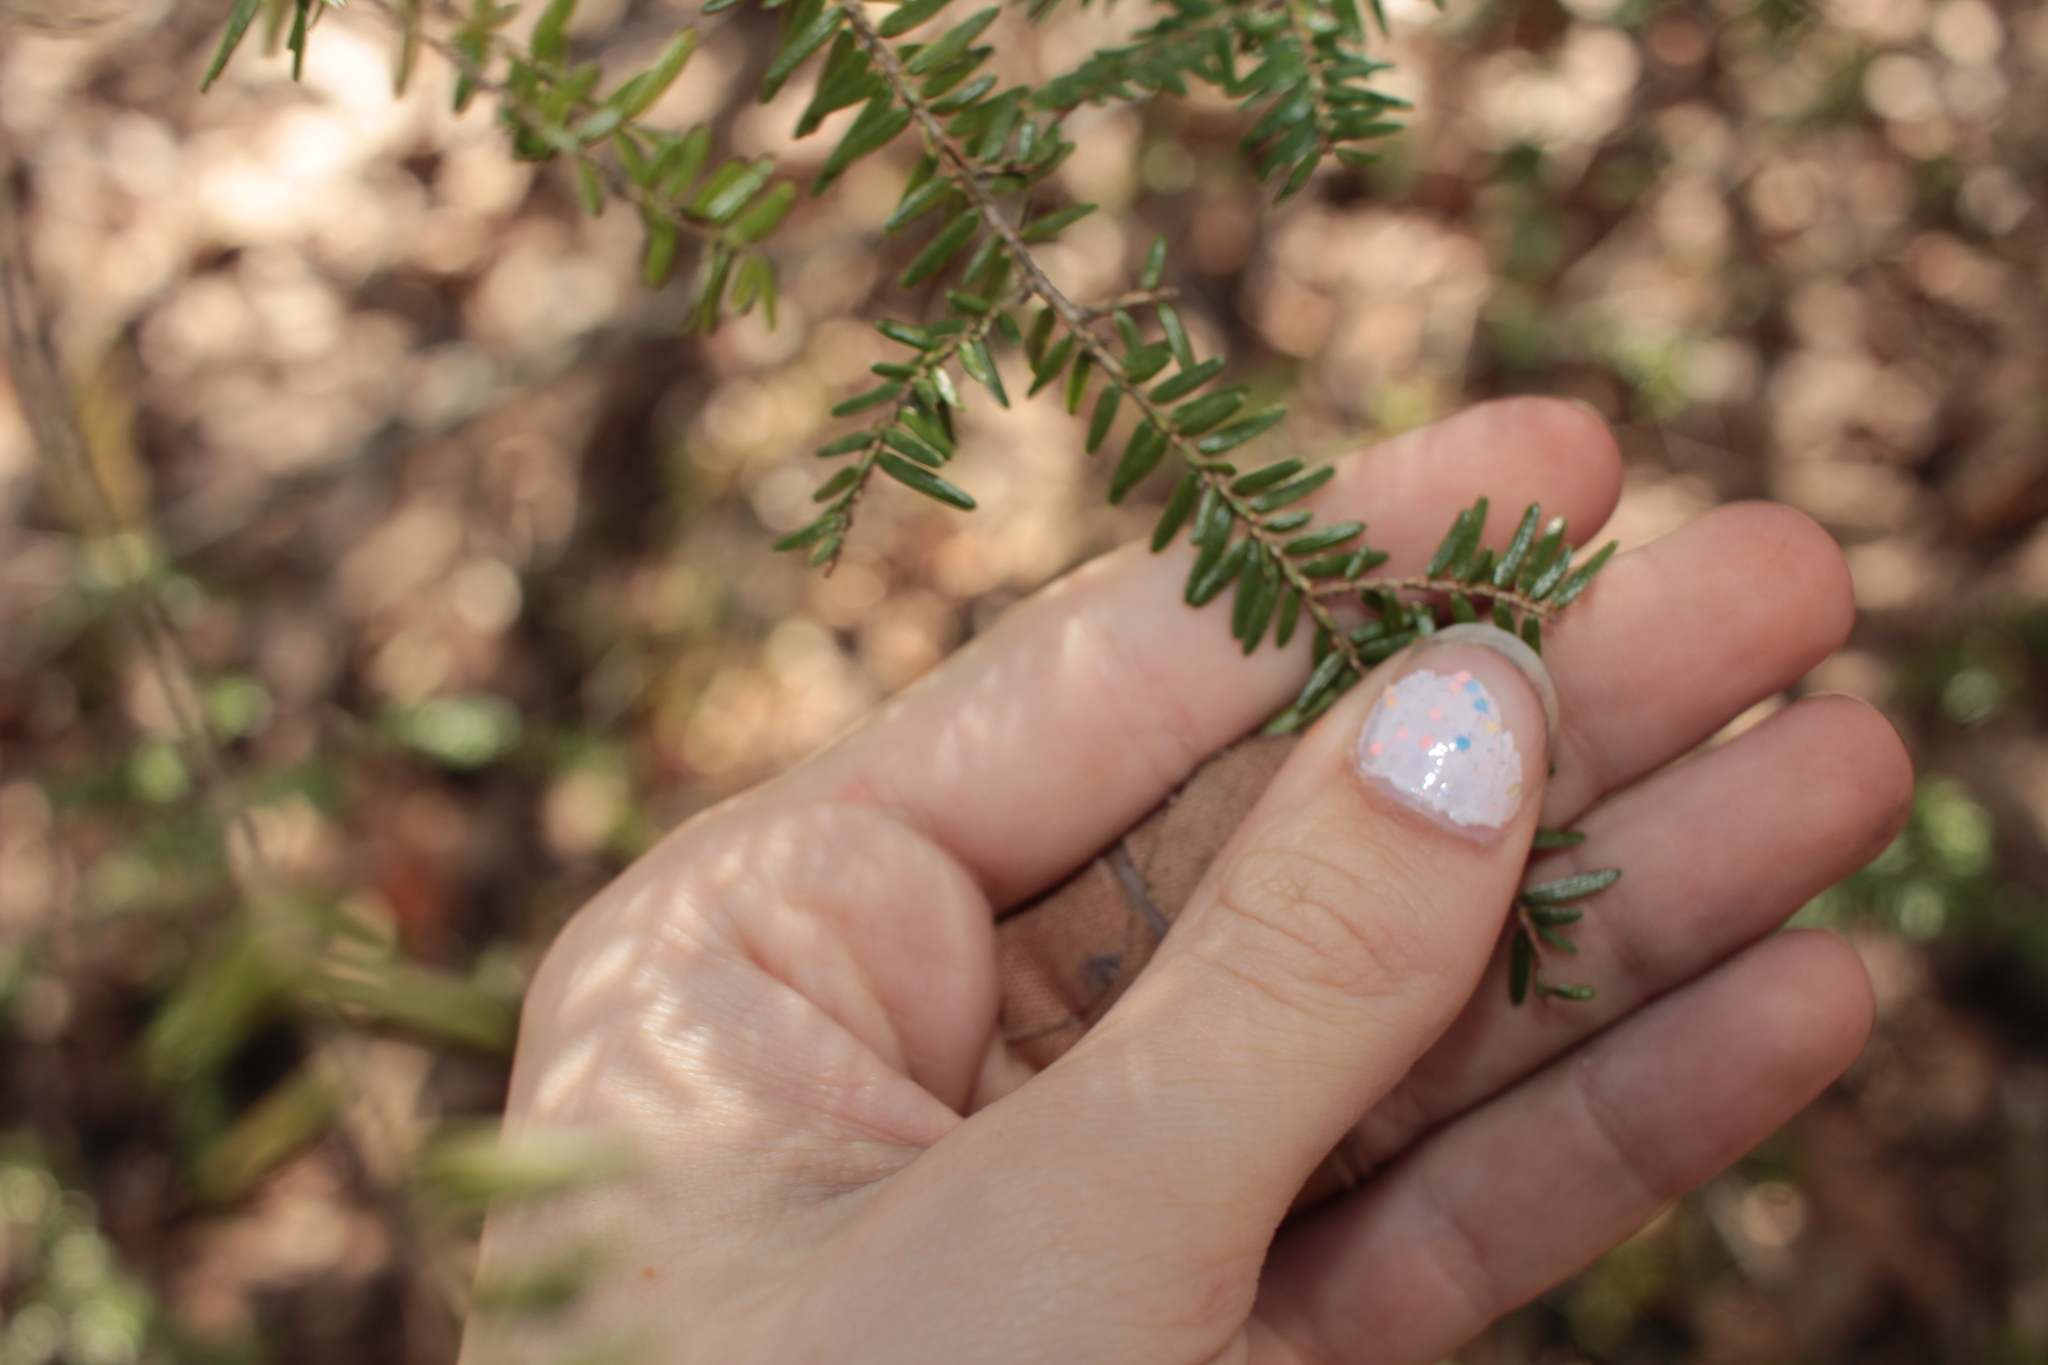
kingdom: Plantae
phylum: Tracheophyta
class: Pinopsida
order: Pinales
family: Pinaceae
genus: Tsuga
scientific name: Tsuga canadensis
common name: Eastern hemlock
